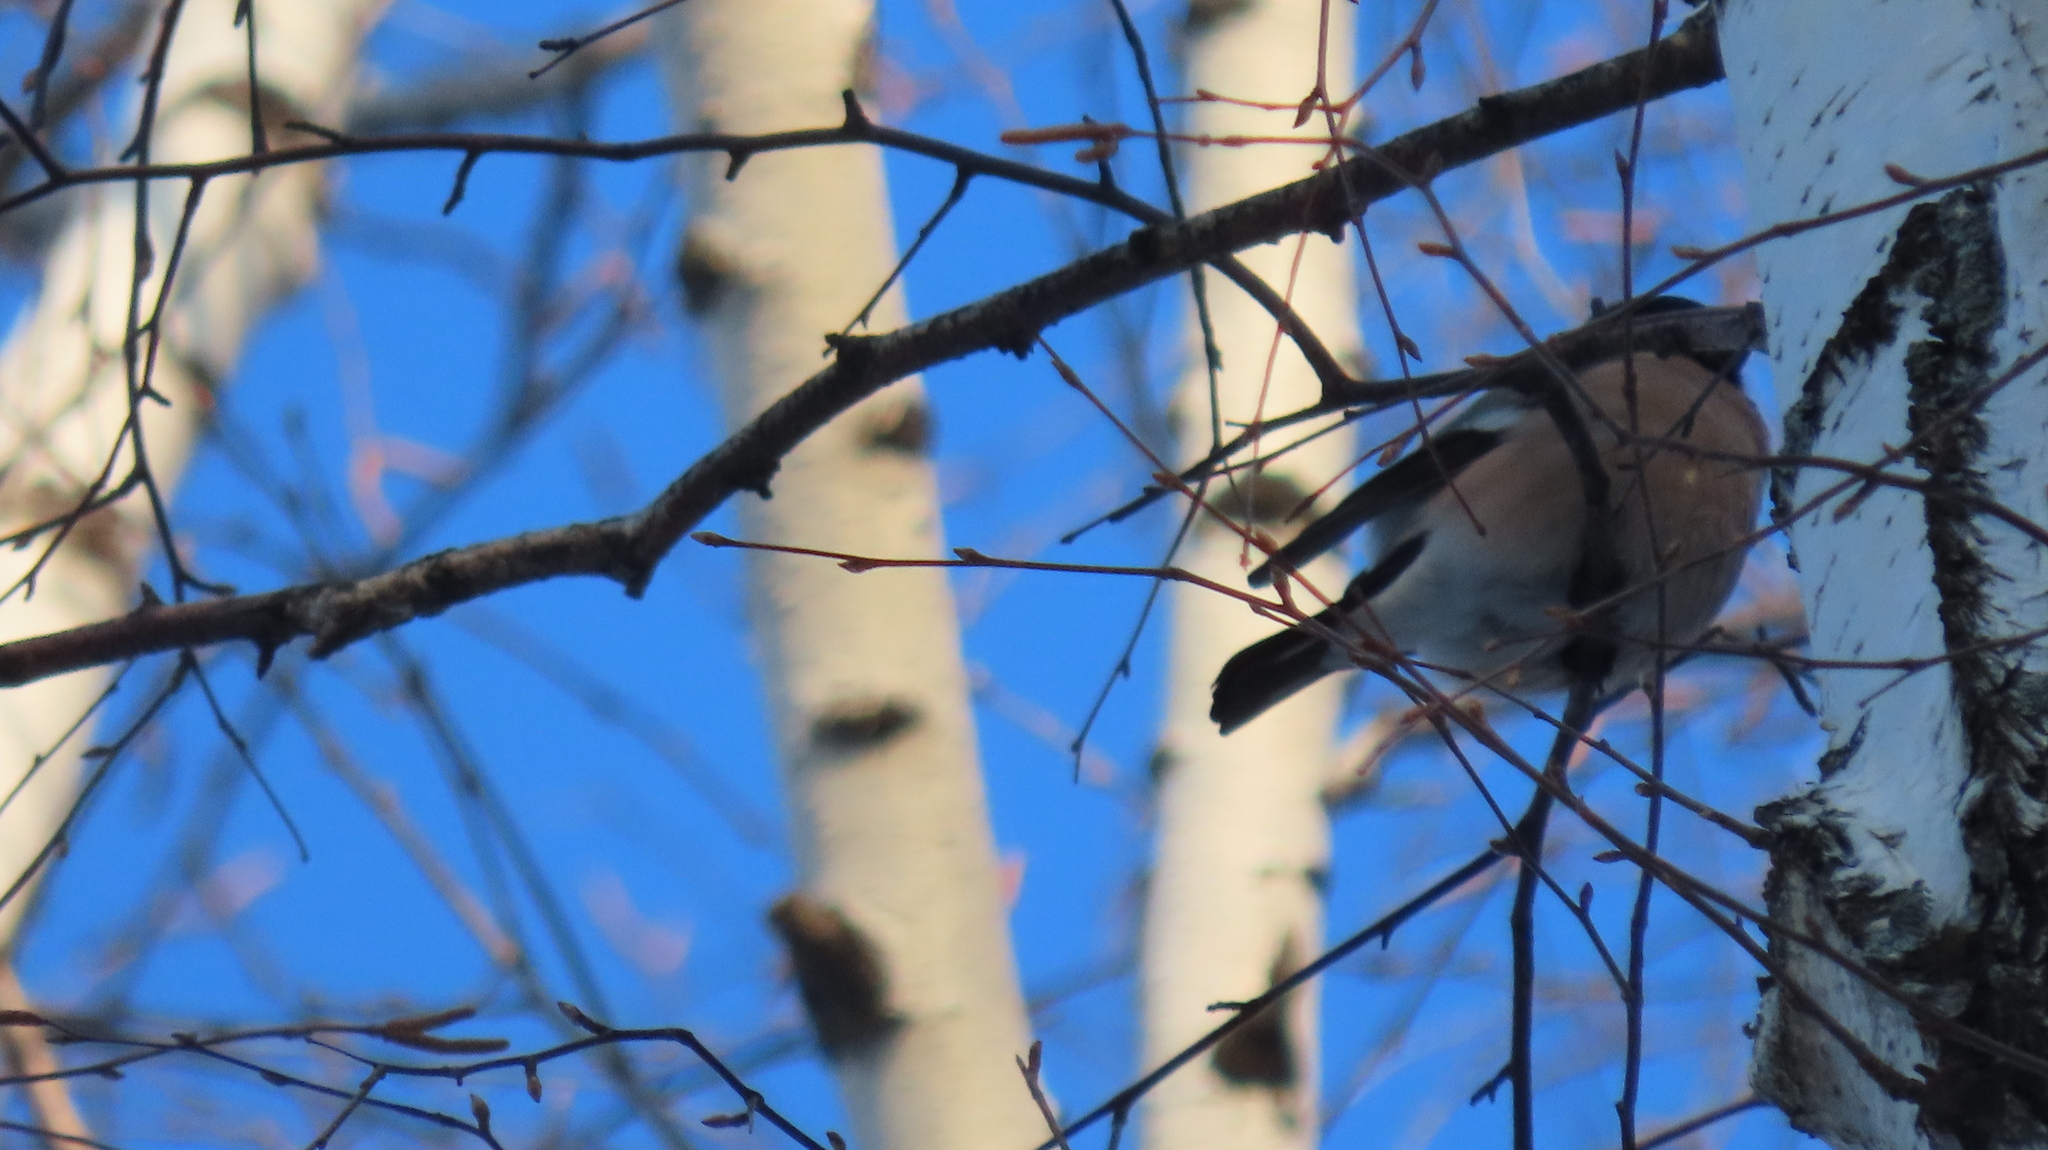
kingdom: Animalia
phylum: Chordata
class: Aves
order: Passeriformes
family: Fringillidae
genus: Pyrrhula
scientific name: Pyrrhula pyrrhula
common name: Eurasian bullfinch
